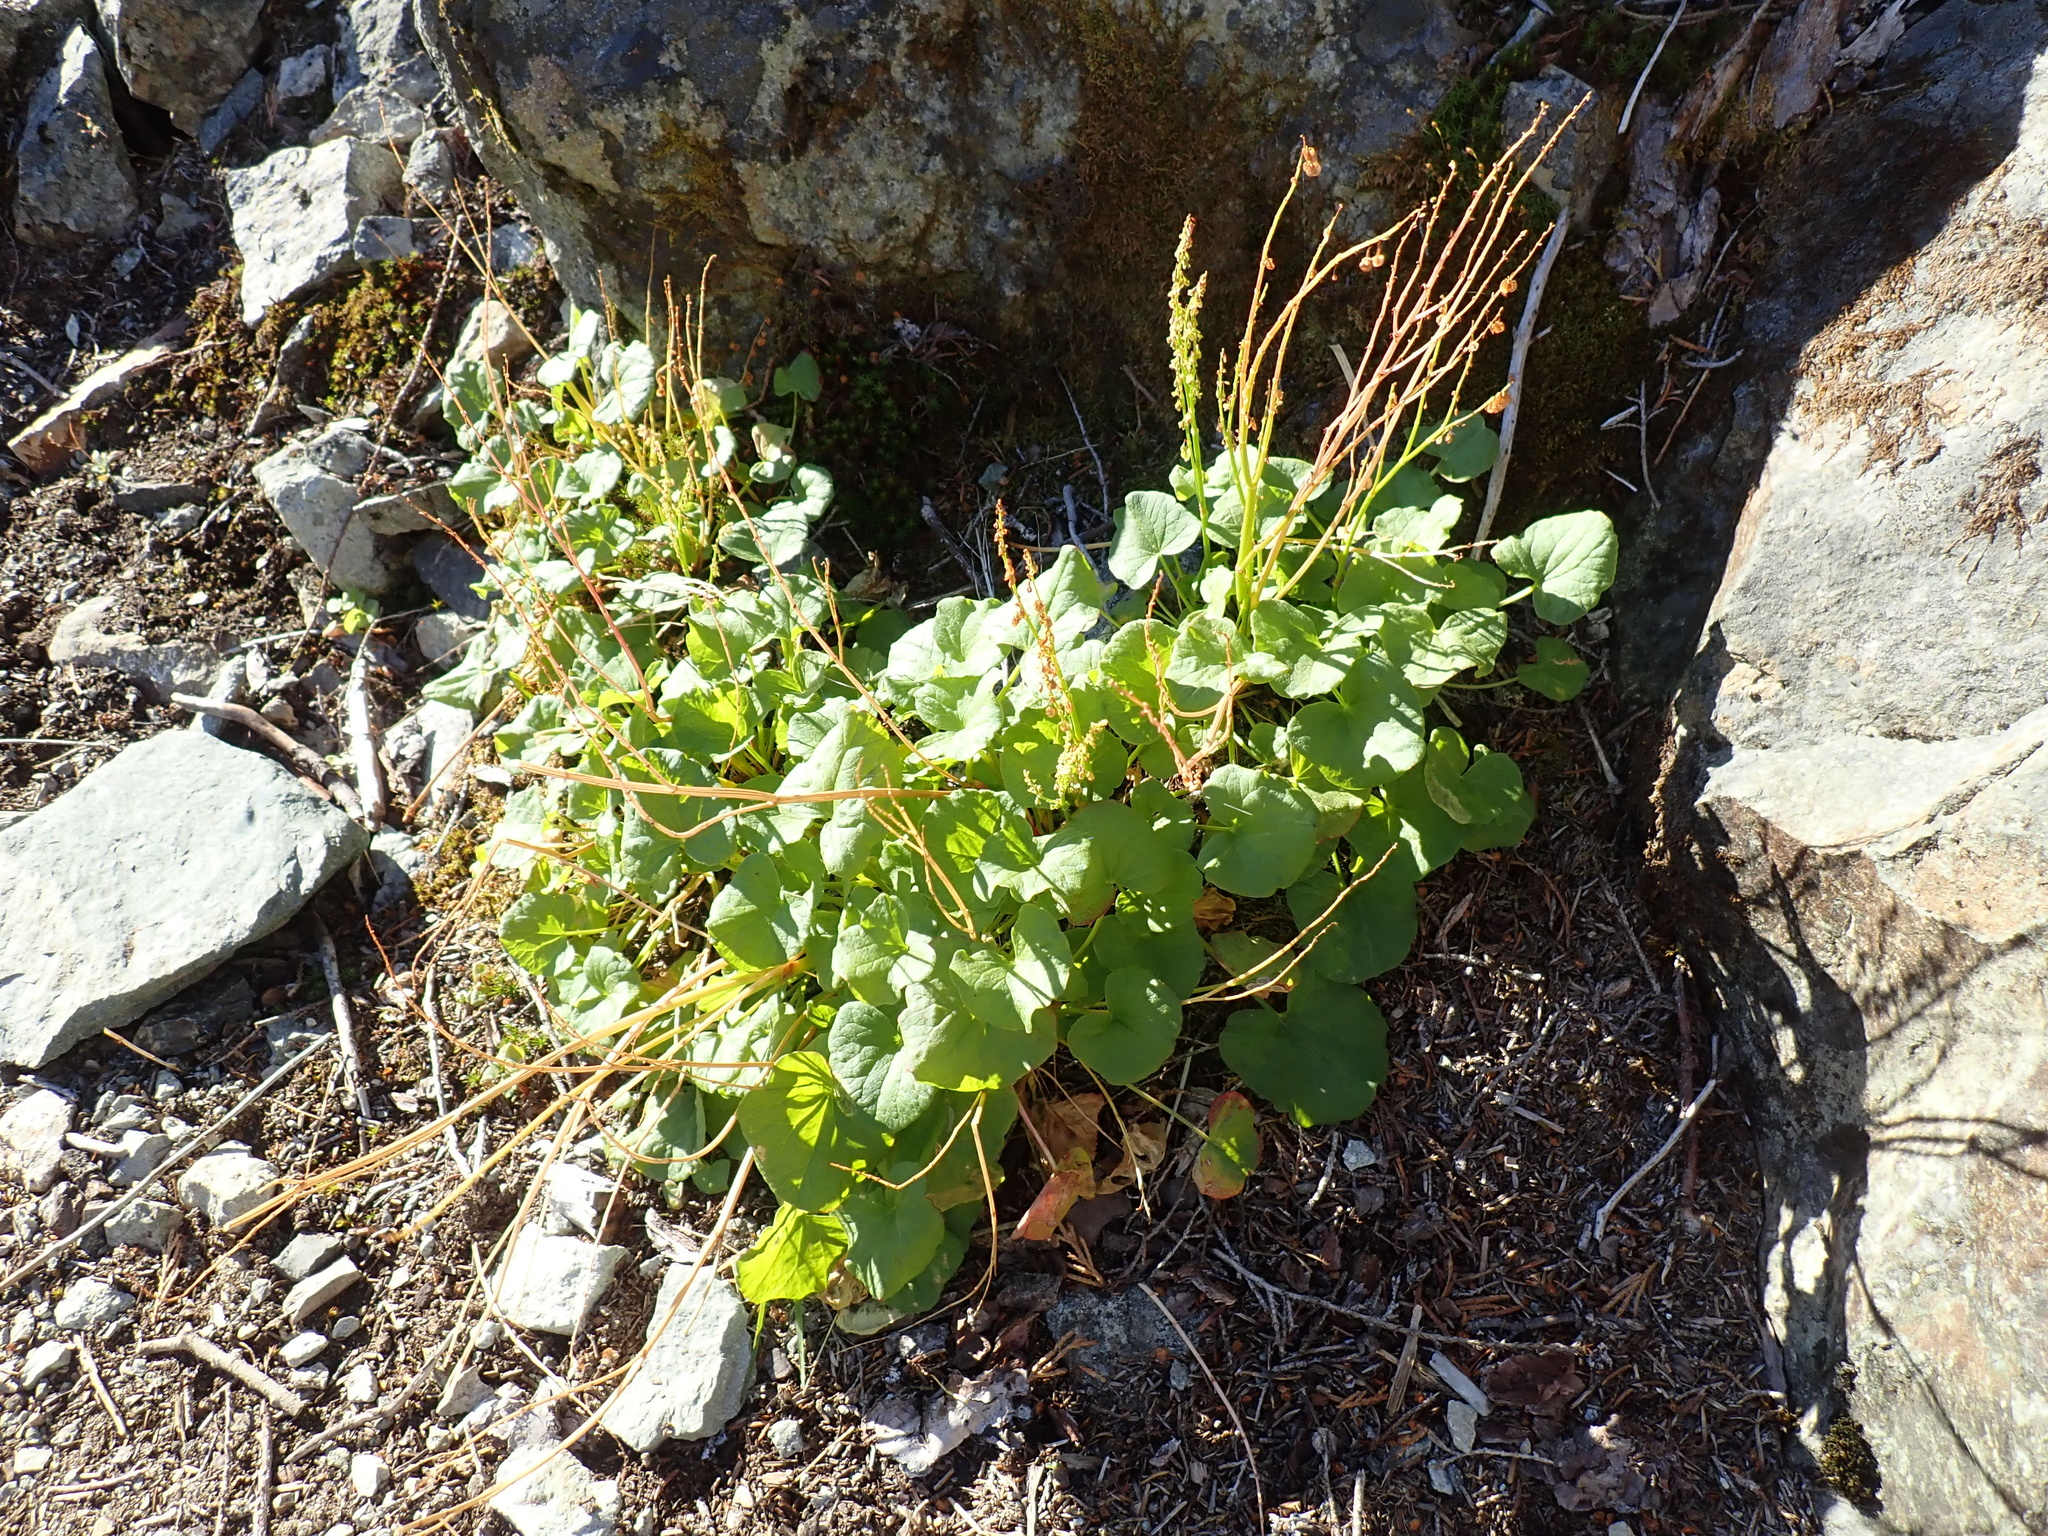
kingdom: Plantae
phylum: Tracheophyta
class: Magnoliopsida
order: Caryophyllales
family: Polygonaceae
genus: Oxyria
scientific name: Oxyria digyna
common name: Alpine mountain-sorrel
